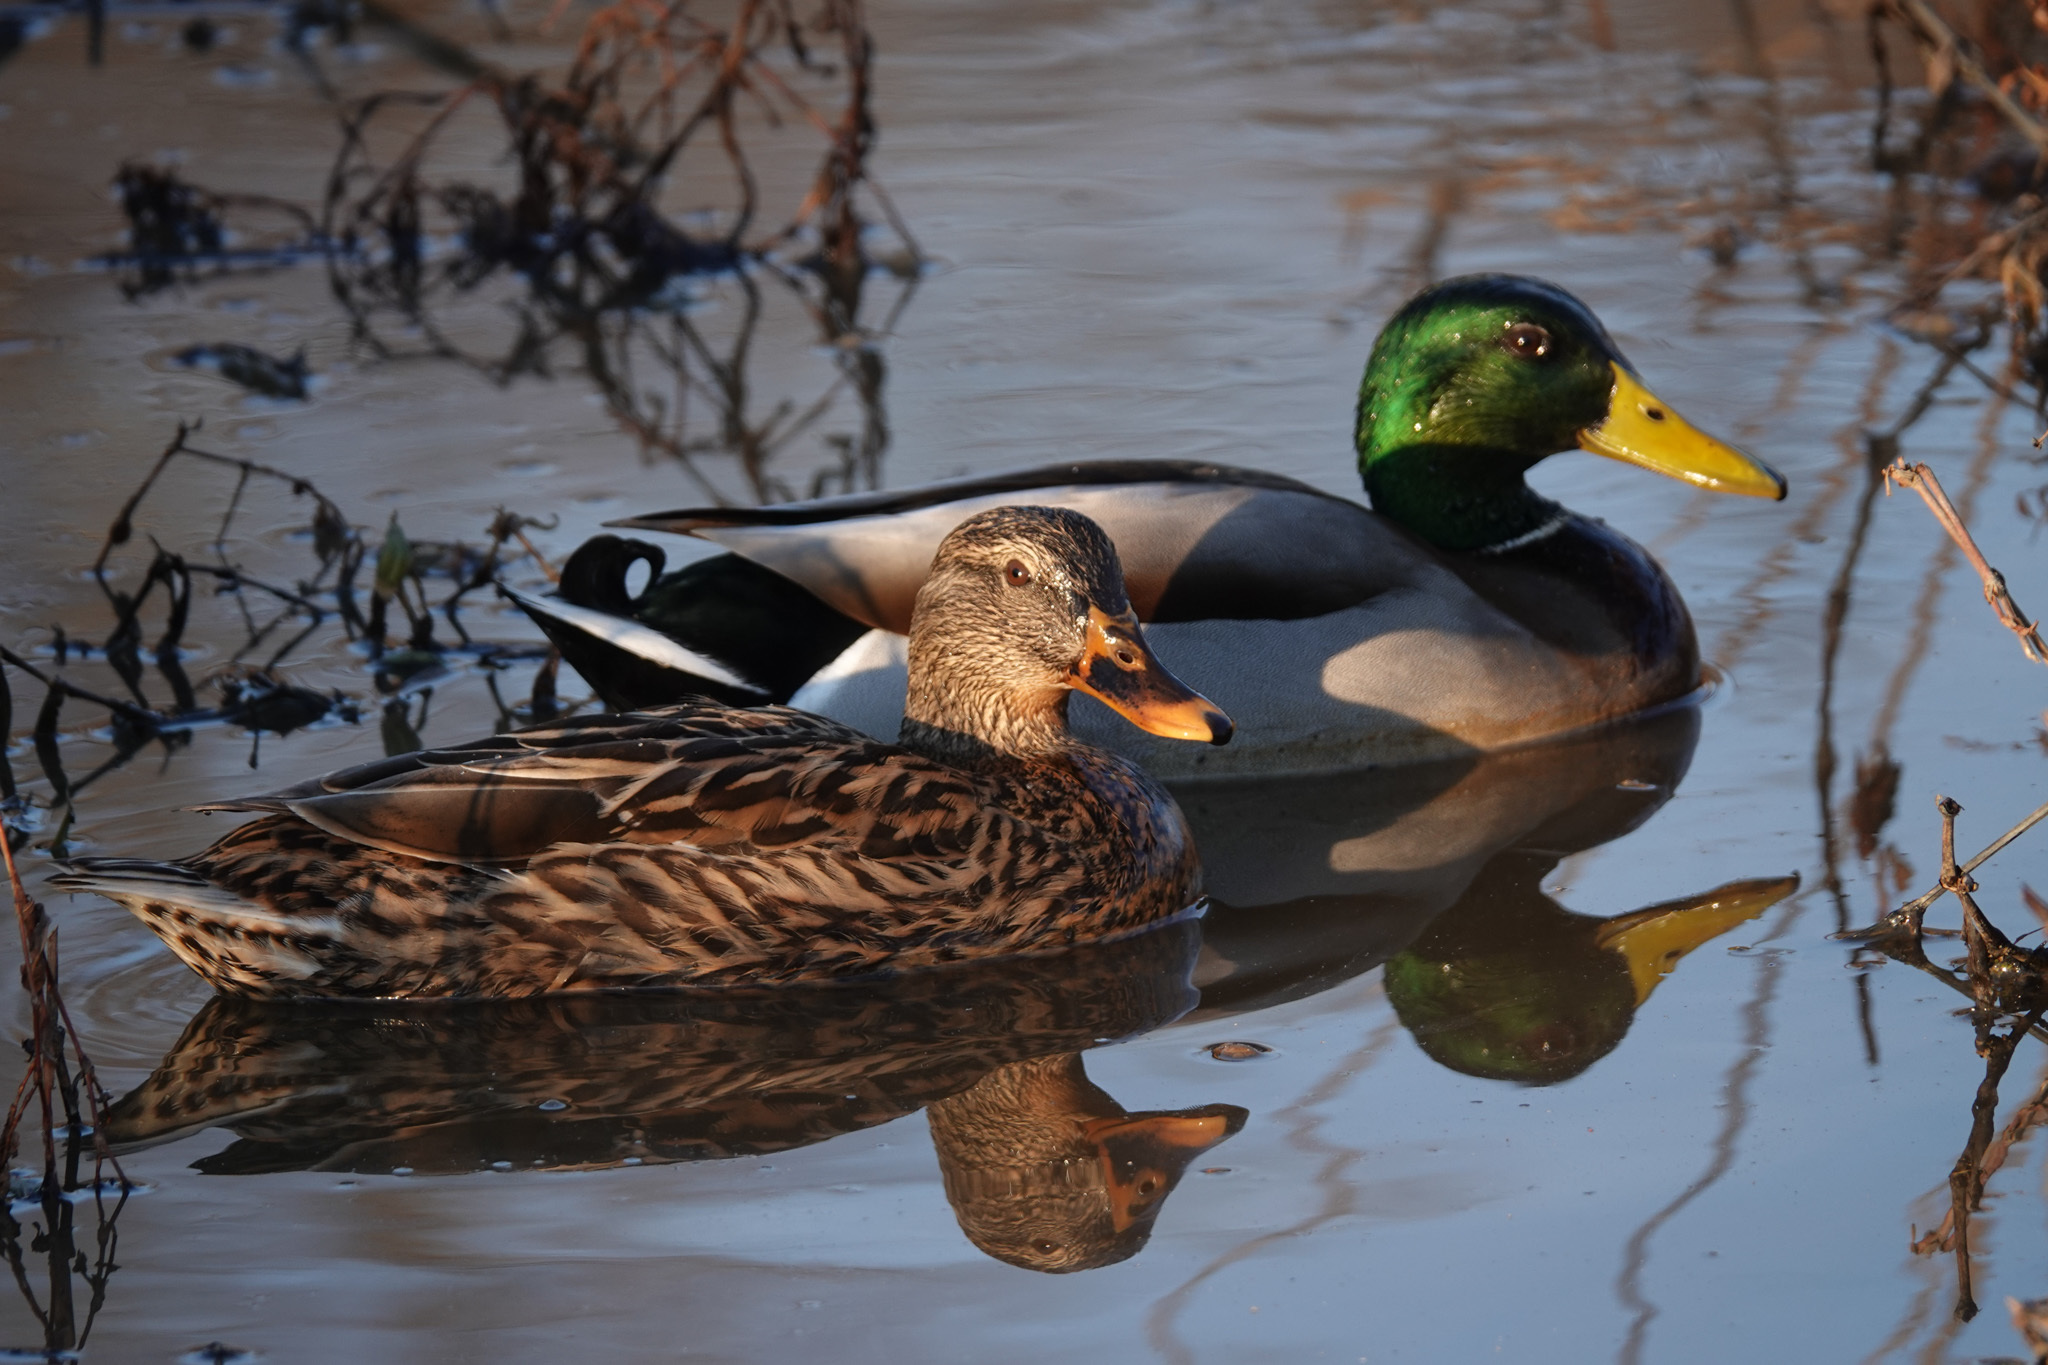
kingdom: Animalia
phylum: Chordata
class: Aves
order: Anseriformes
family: Anatidae
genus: Anas
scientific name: Anas platyrhynchos
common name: Mallard
